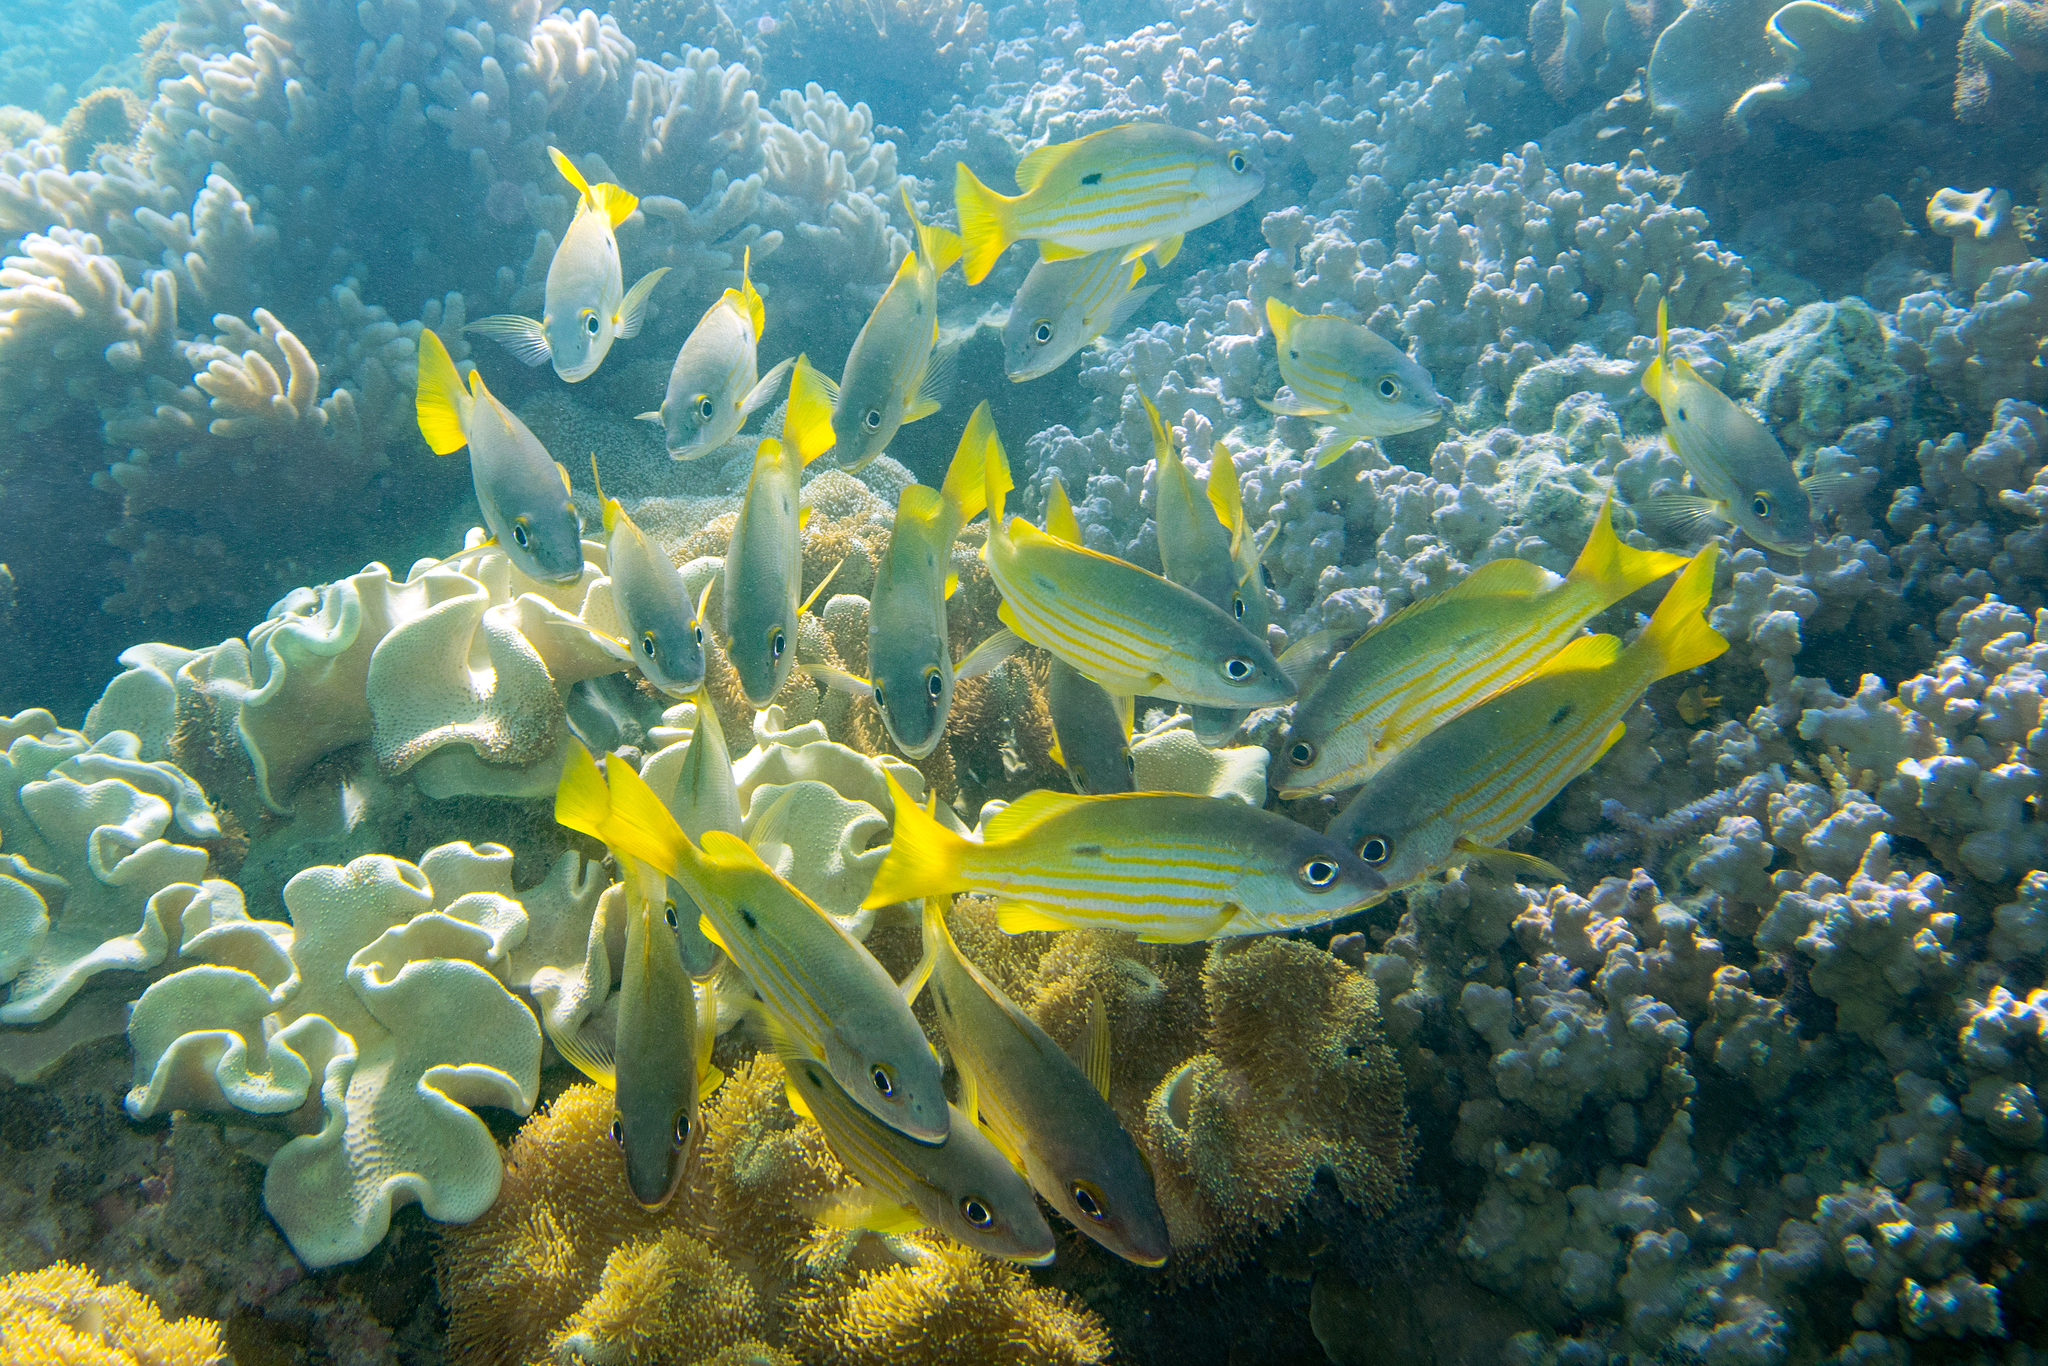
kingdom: Animalia
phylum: Chordata
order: Perciformes
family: Lutjanidae
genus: Lutjanus
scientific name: Lutjanus fulviflamma
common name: Blackspot snapper
